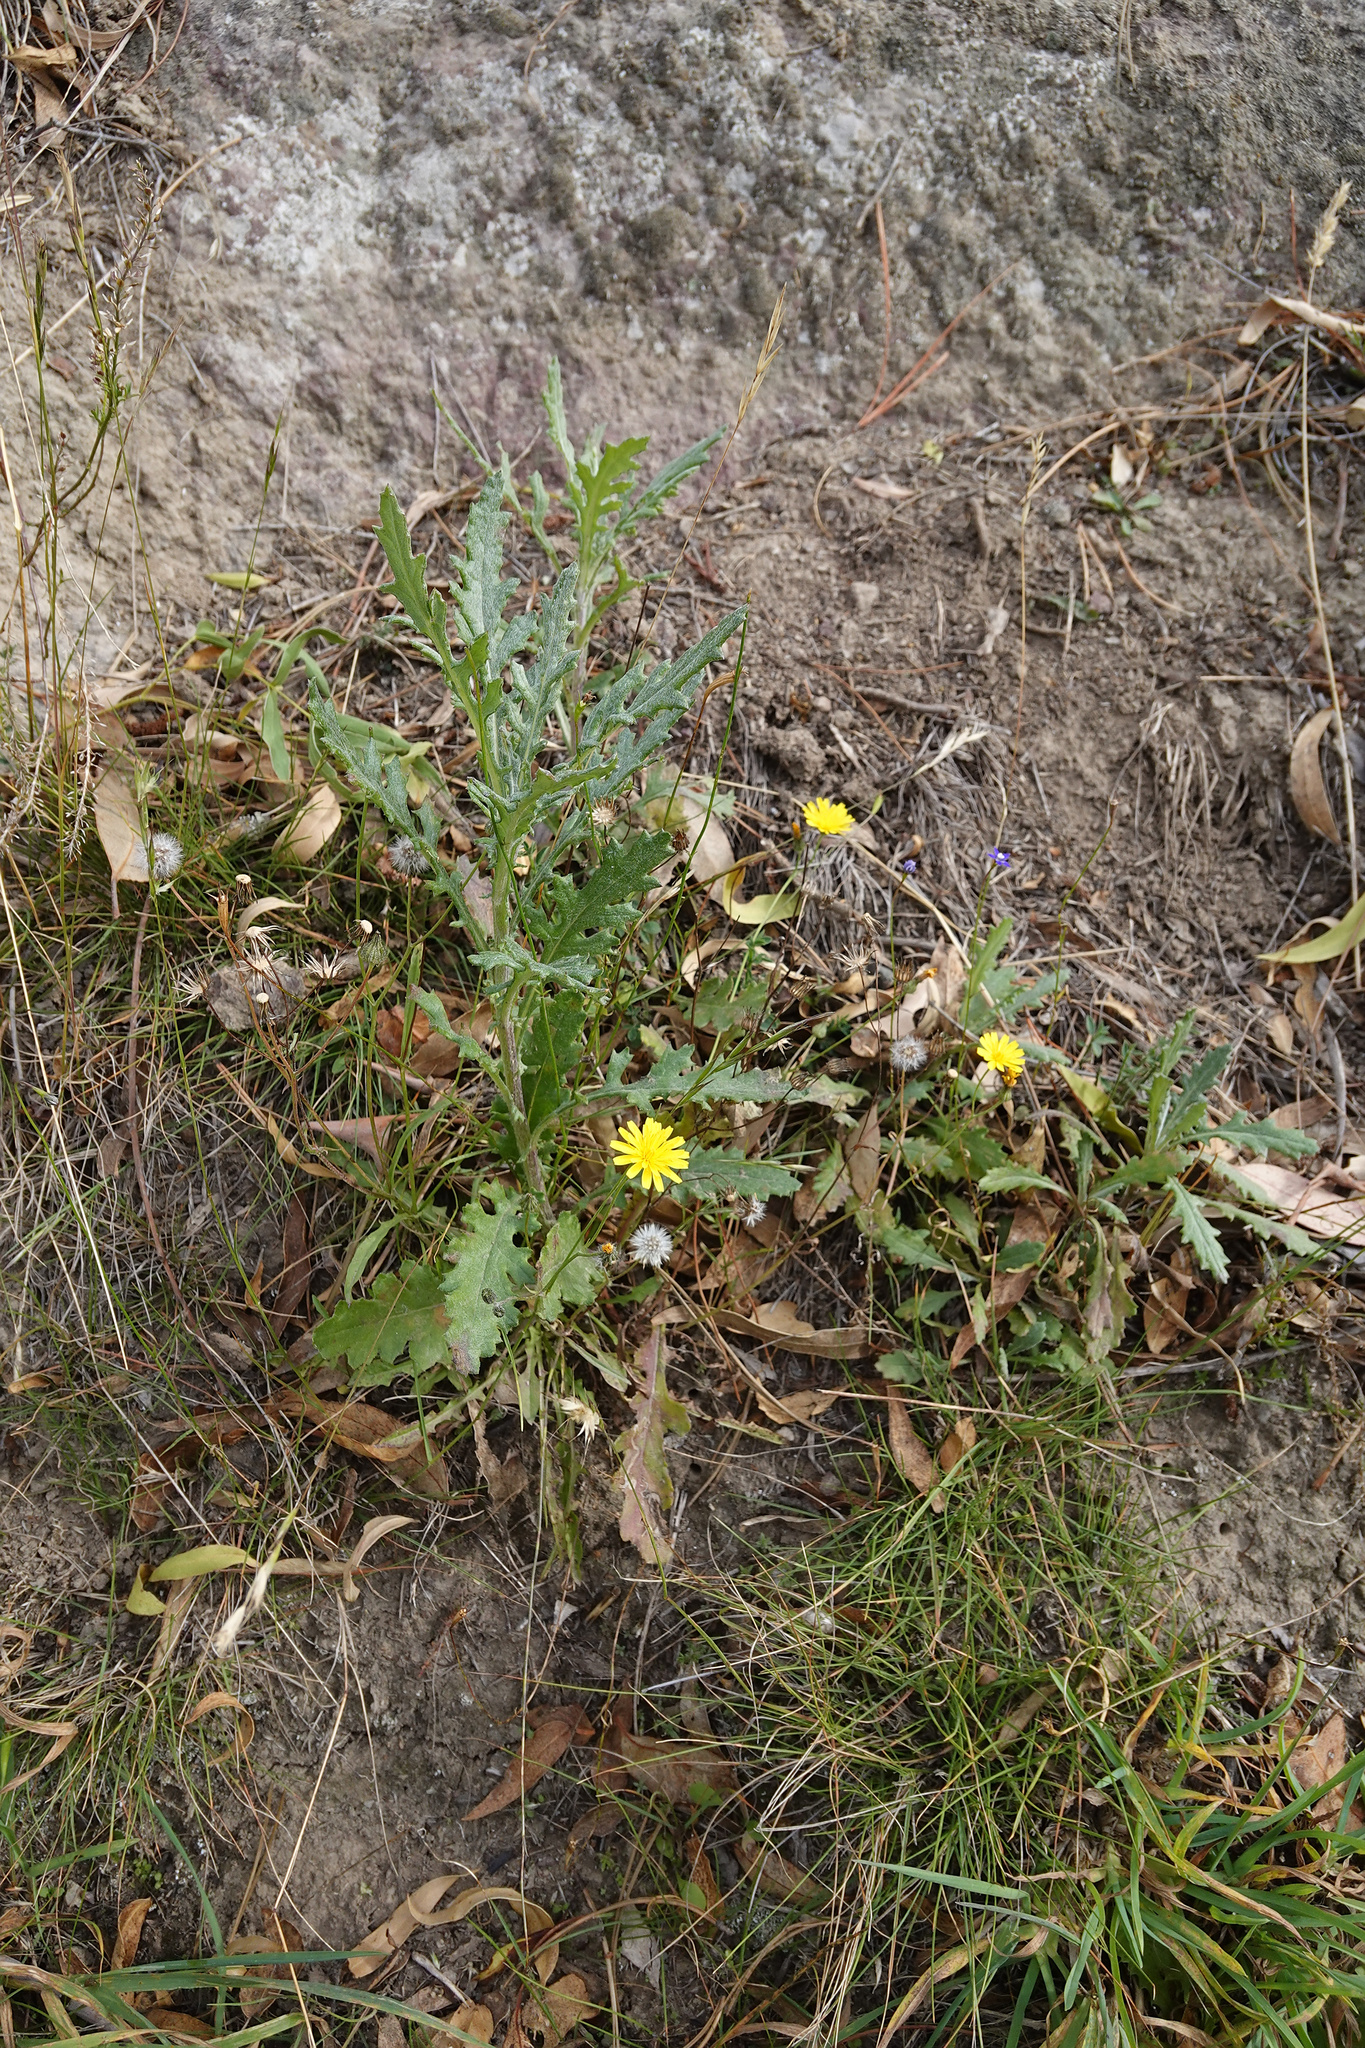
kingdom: Plantae
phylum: Tracheophyta
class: Magnoliopsida
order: Asterales
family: Asteraceae
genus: Senecio
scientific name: Senecio glomeratus
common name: Cutleaf burnweed
